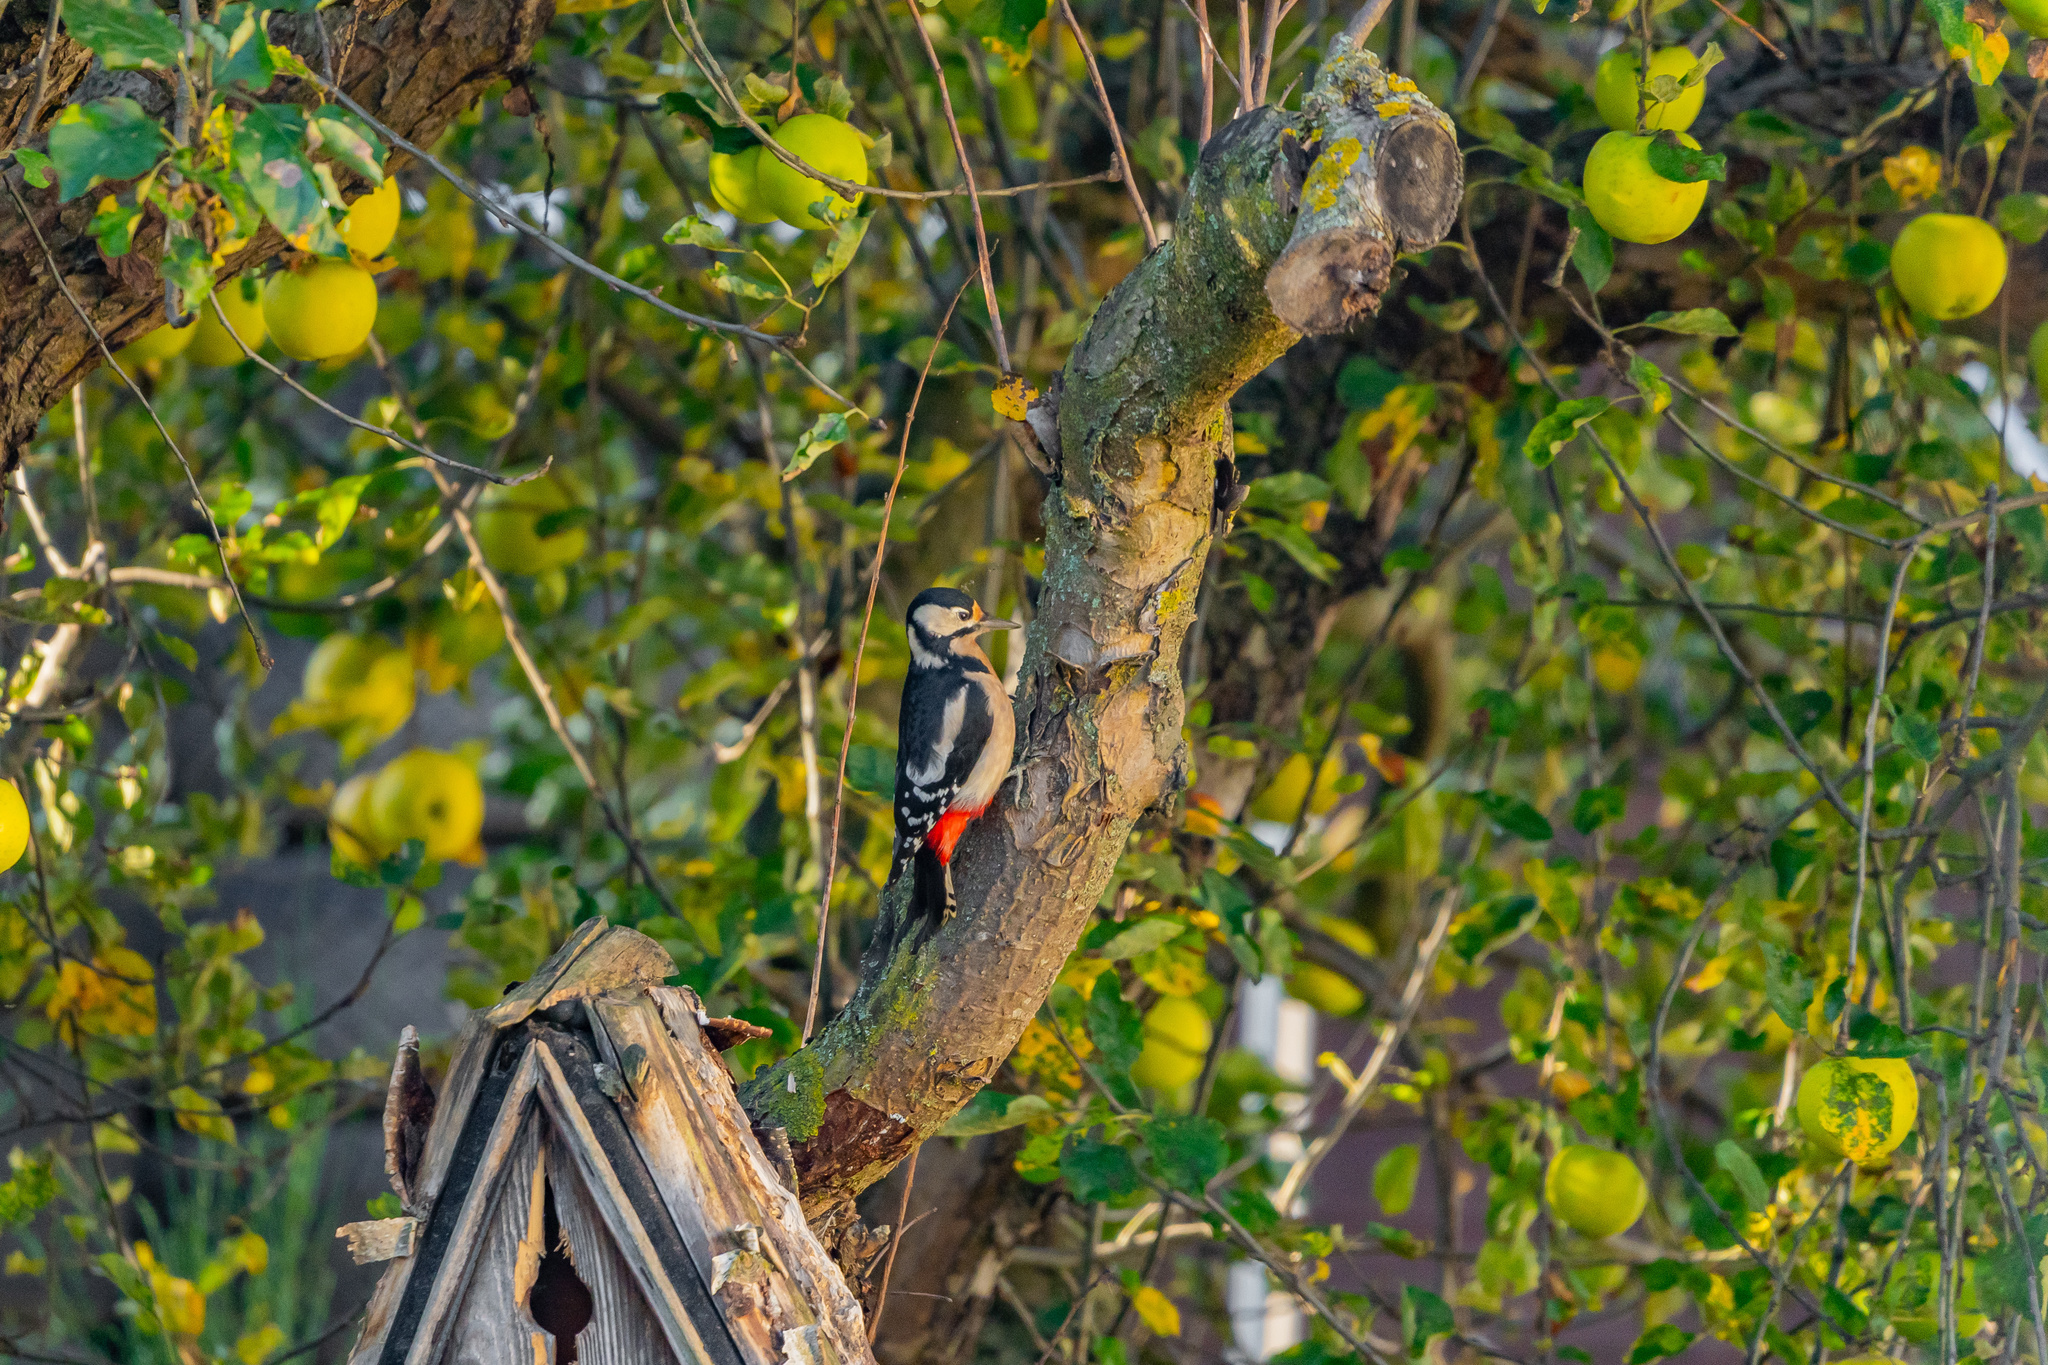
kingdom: Animalia
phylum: Chordata
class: Aves
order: Piciformes
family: Picidae
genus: Dendrocopos
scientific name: Dendrocopos major
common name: Great spotted woodpecker
